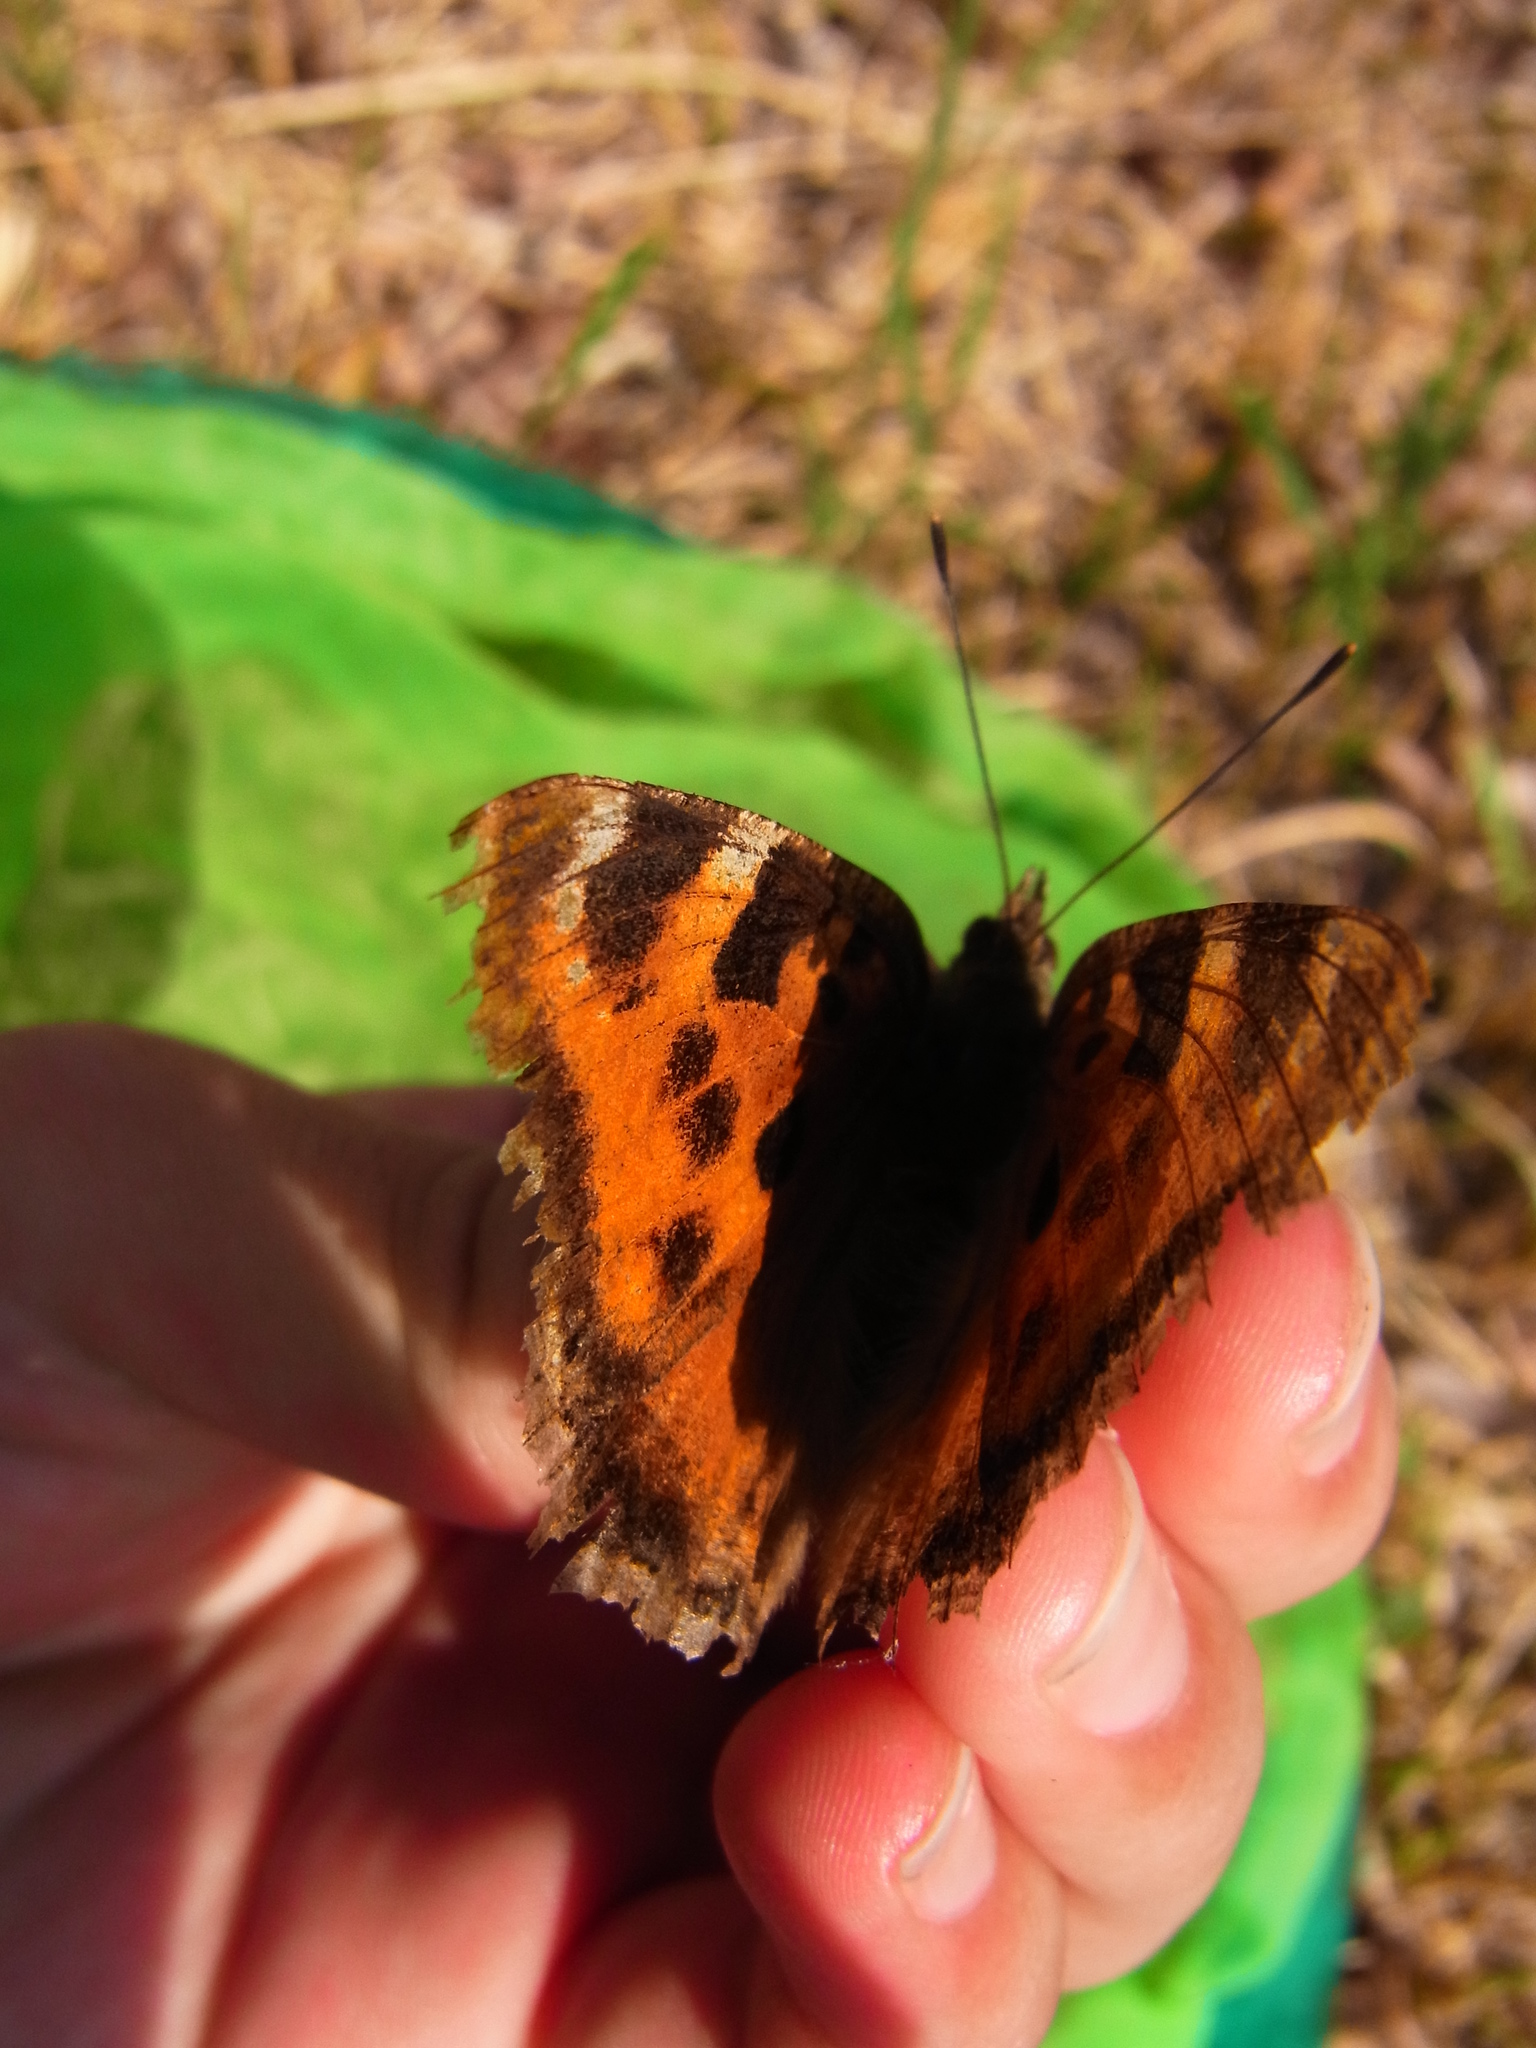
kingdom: Animalia
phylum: Arthropoda
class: Insecta
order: Lepidoptera
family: Nymphalidae
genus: Nymphalis
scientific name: Nymphalis xanthomelas
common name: Scarce tortoiseshell
